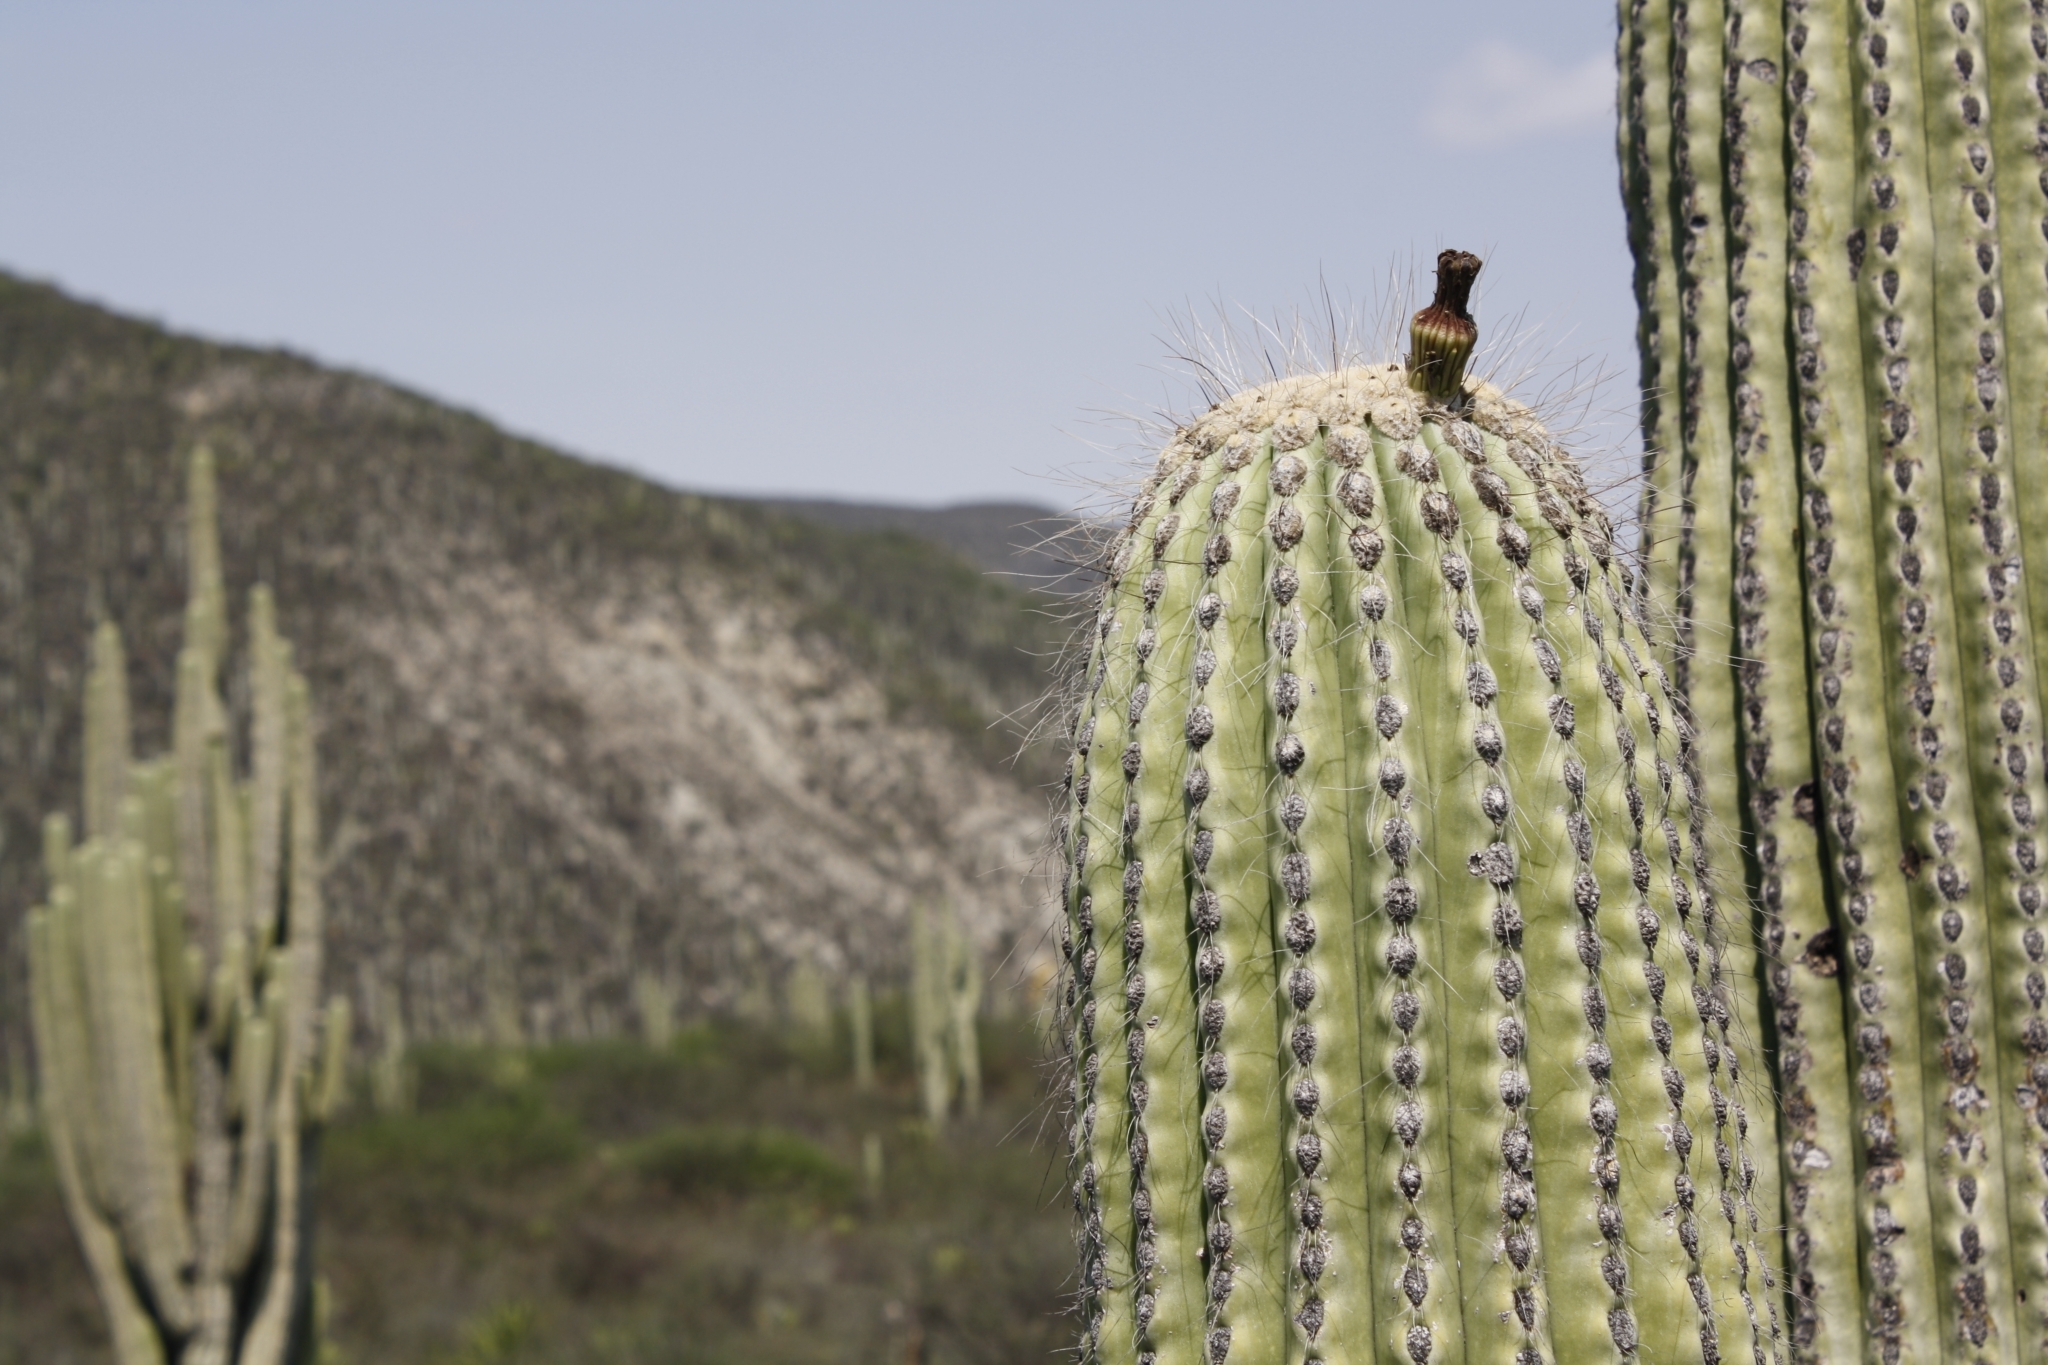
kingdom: Plantae
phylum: Tracheophyta
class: Magnoliopsida
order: Caryophyllales
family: Cactaceae
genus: Cephalocereus
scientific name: Cephalocereus tetetzo
